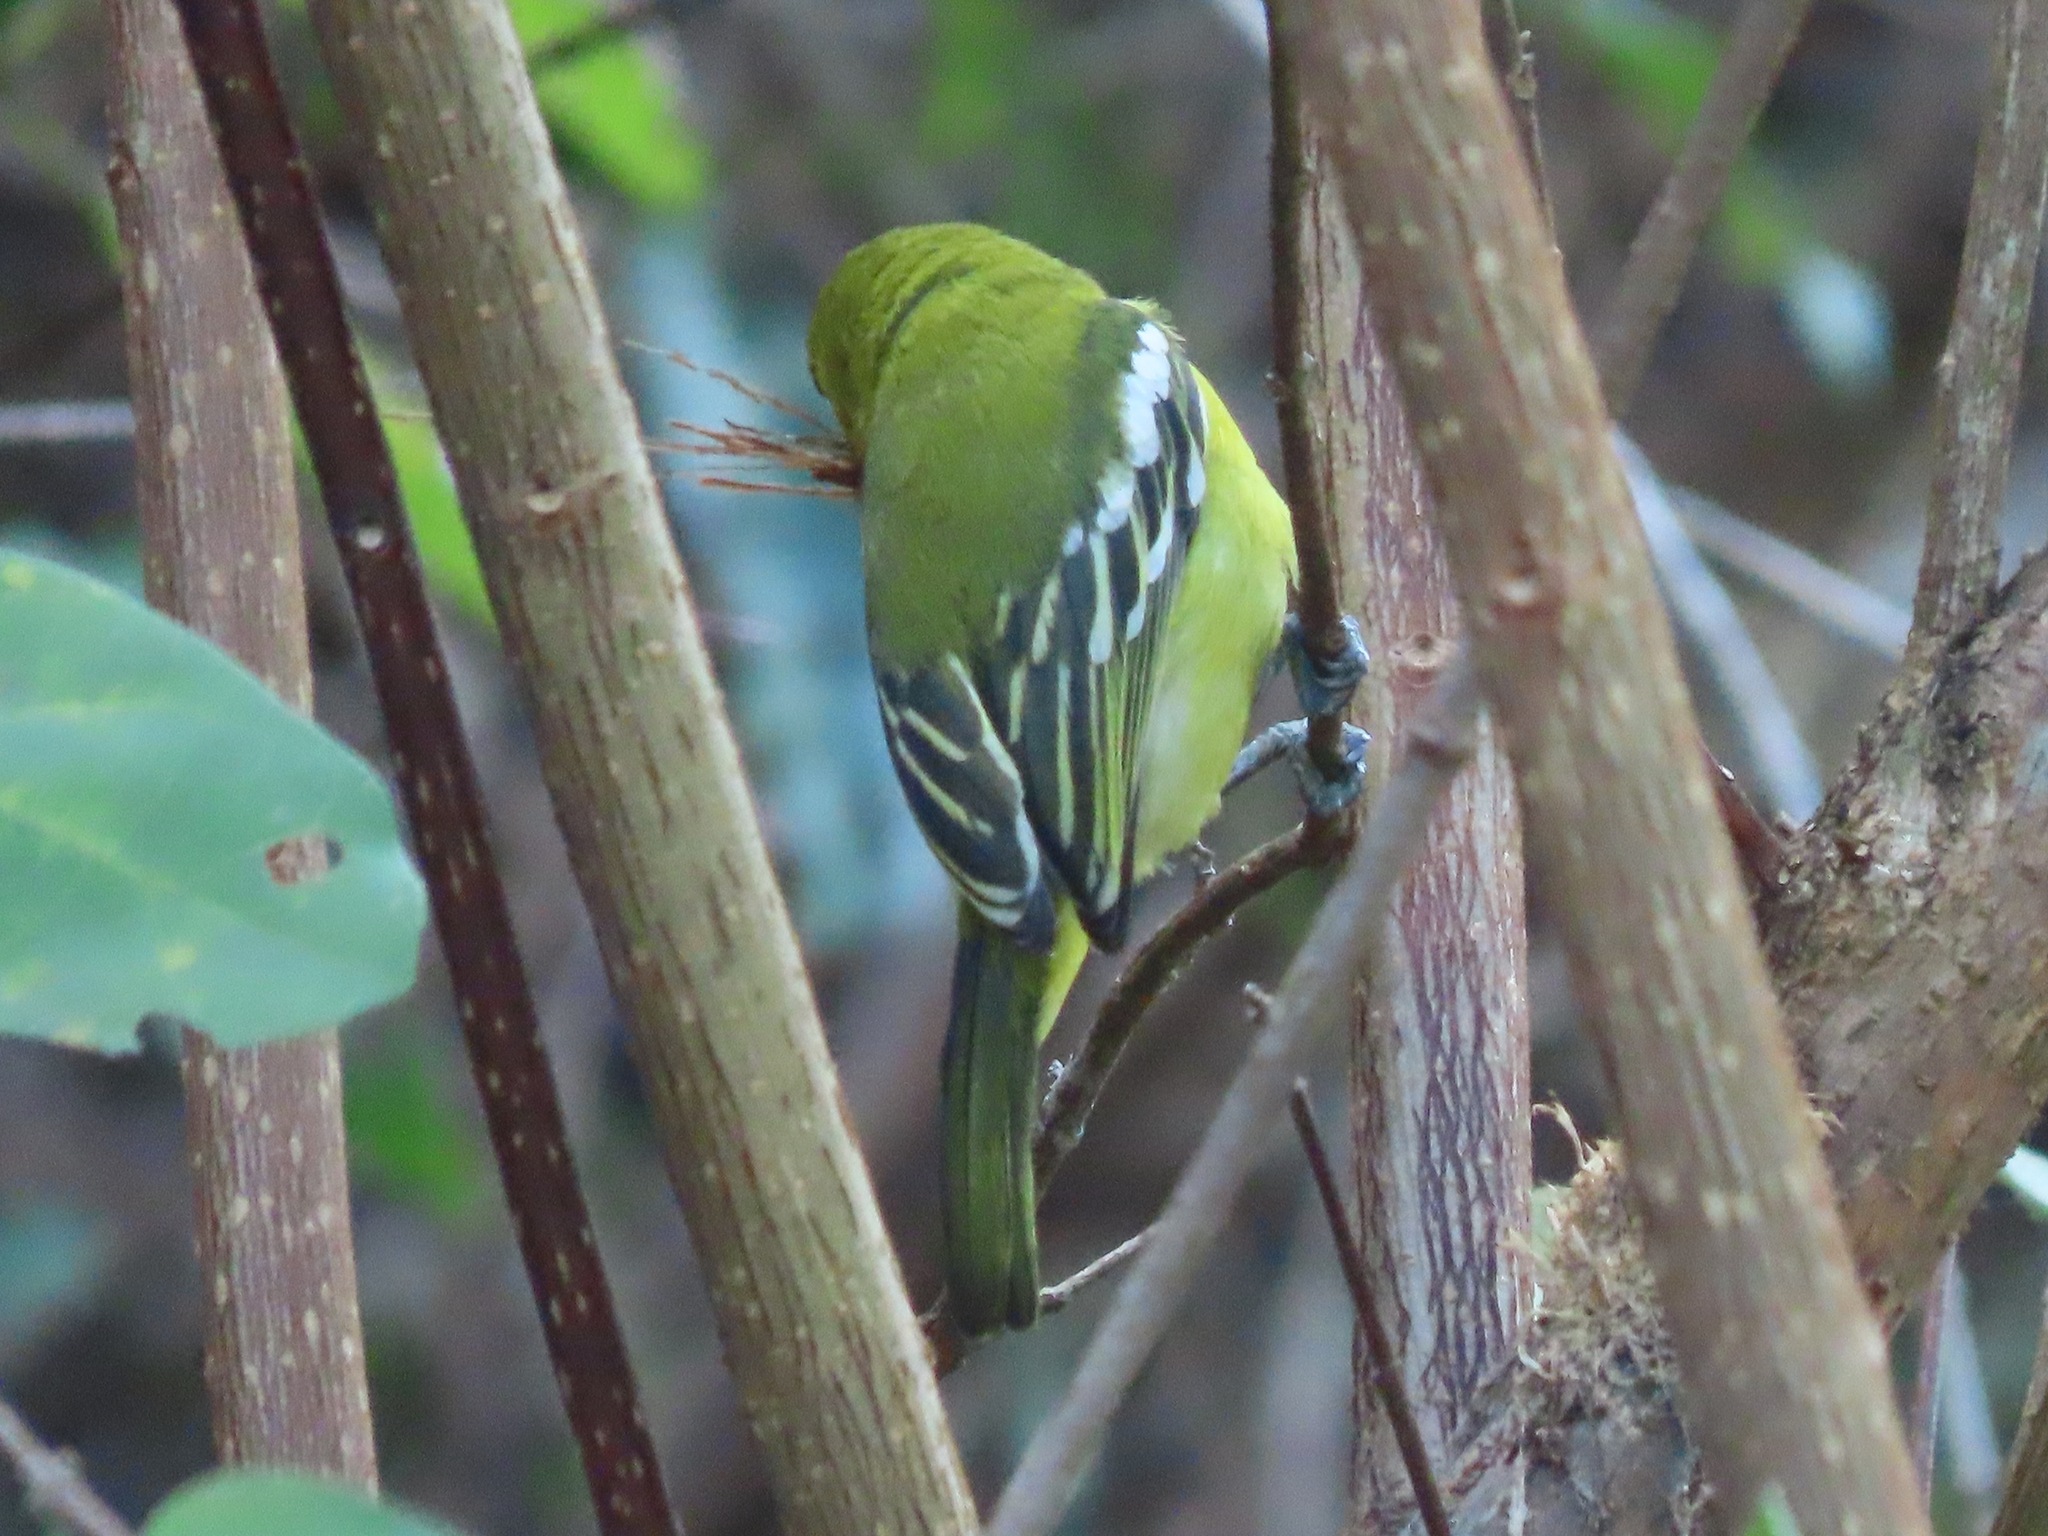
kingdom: Animalia
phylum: Chordata
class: Aves
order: Passeriformes
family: Aegithinidae
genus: Aegithina
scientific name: Aegithina tiphia
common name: Common iora
